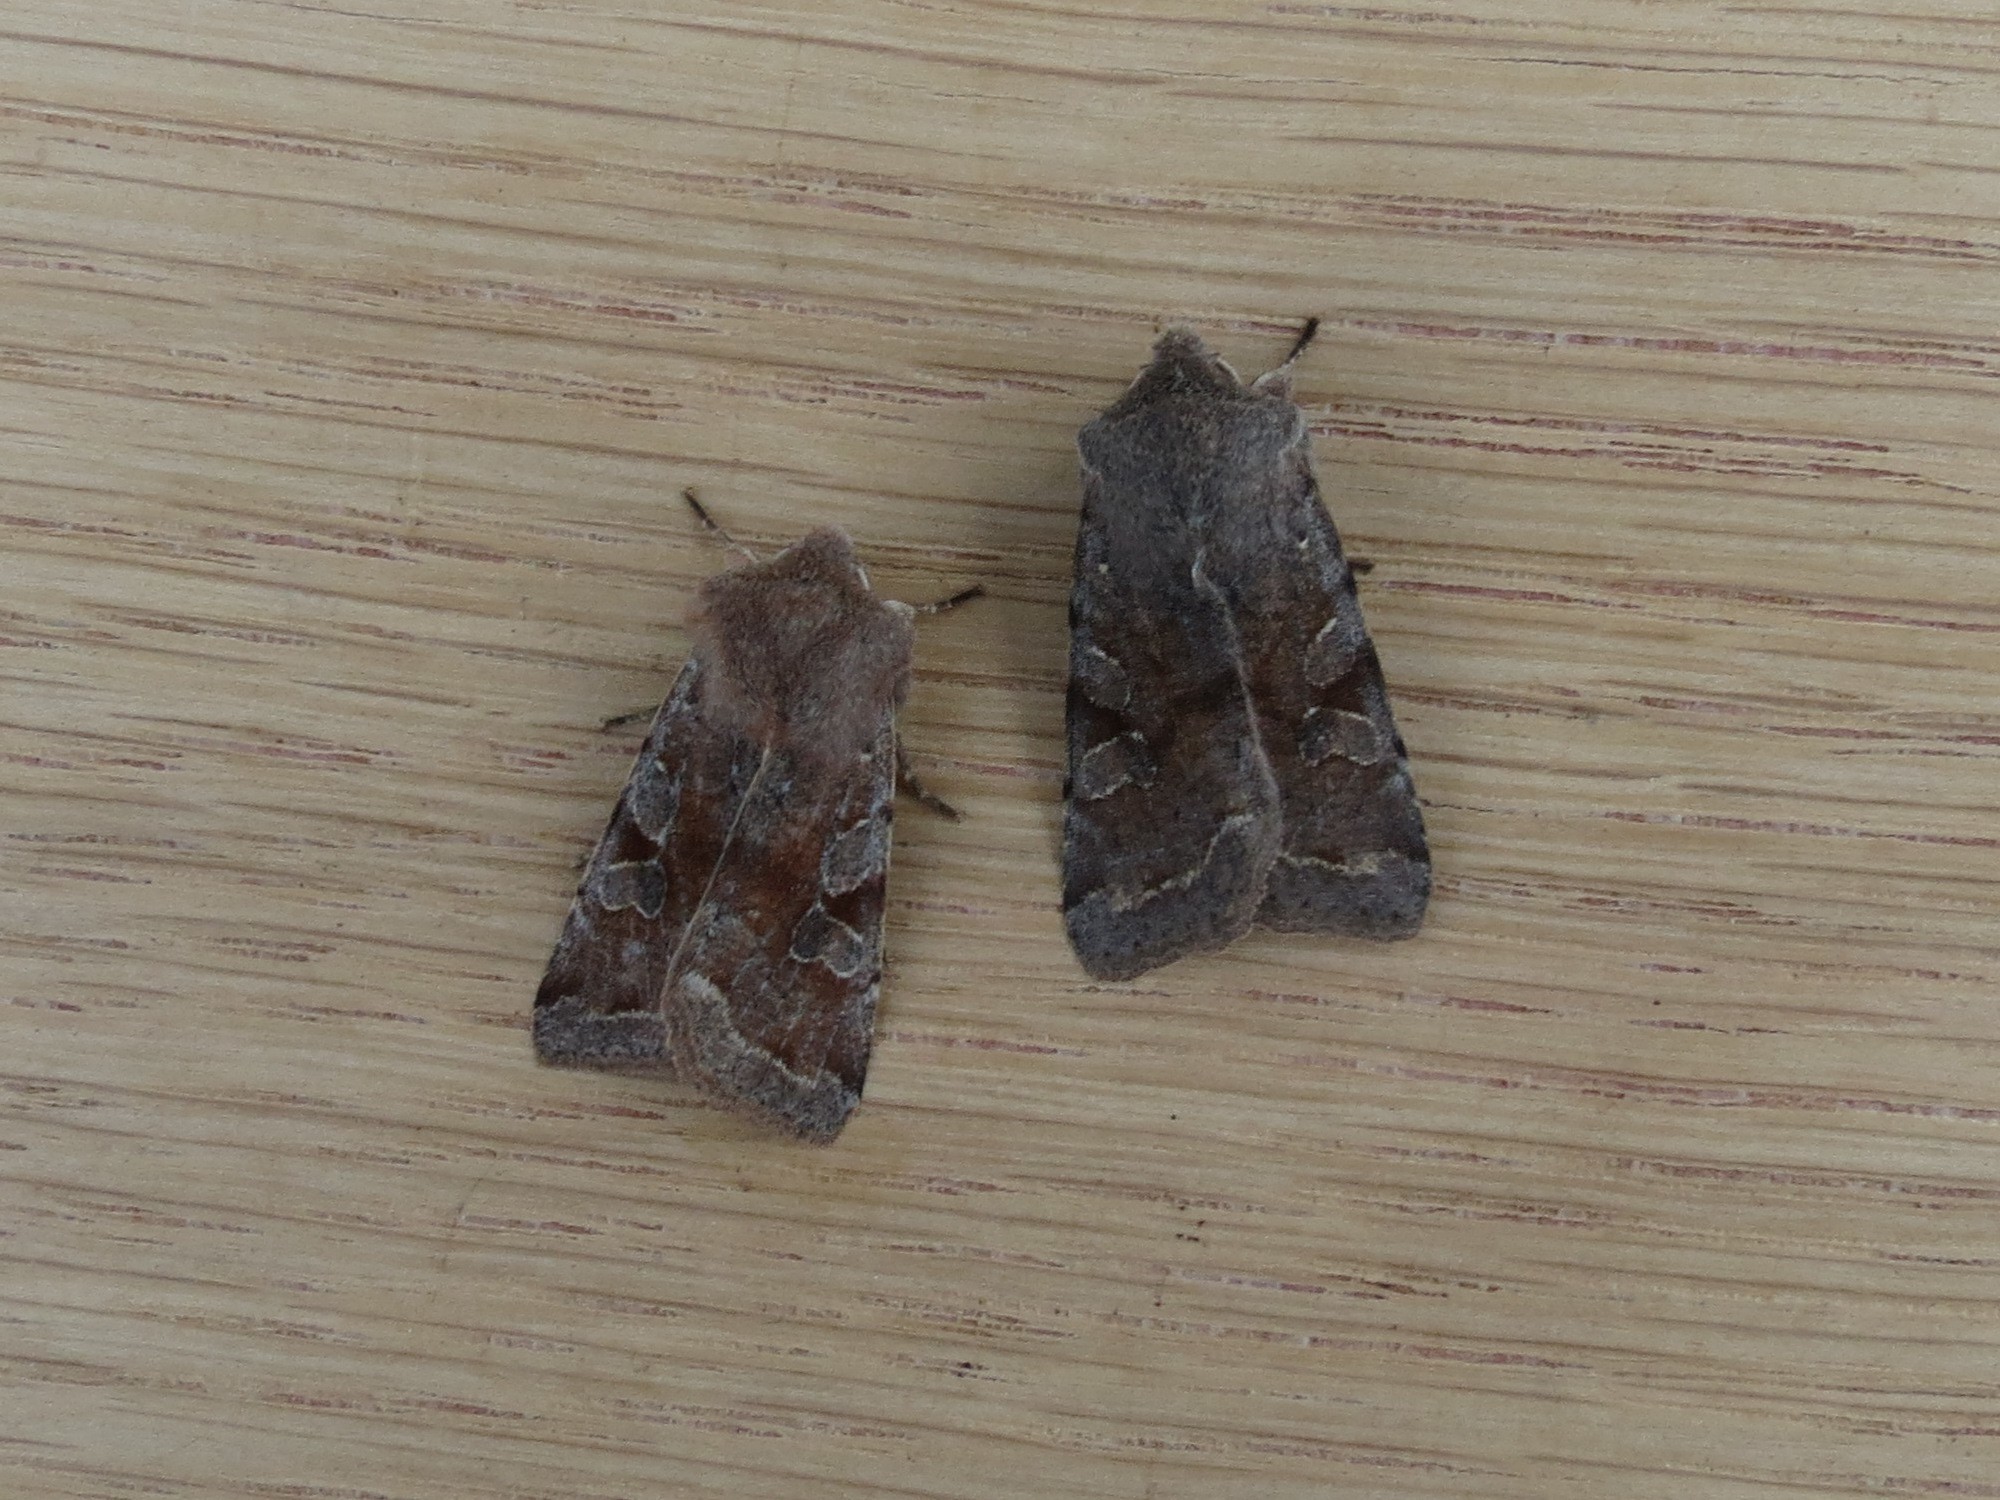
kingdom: Animalia
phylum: Arthropoda
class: Insecta
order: Lepidoptera
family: Noctuidae
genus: Orthosia
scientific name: Orthosia incerta
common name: Clouded drab
